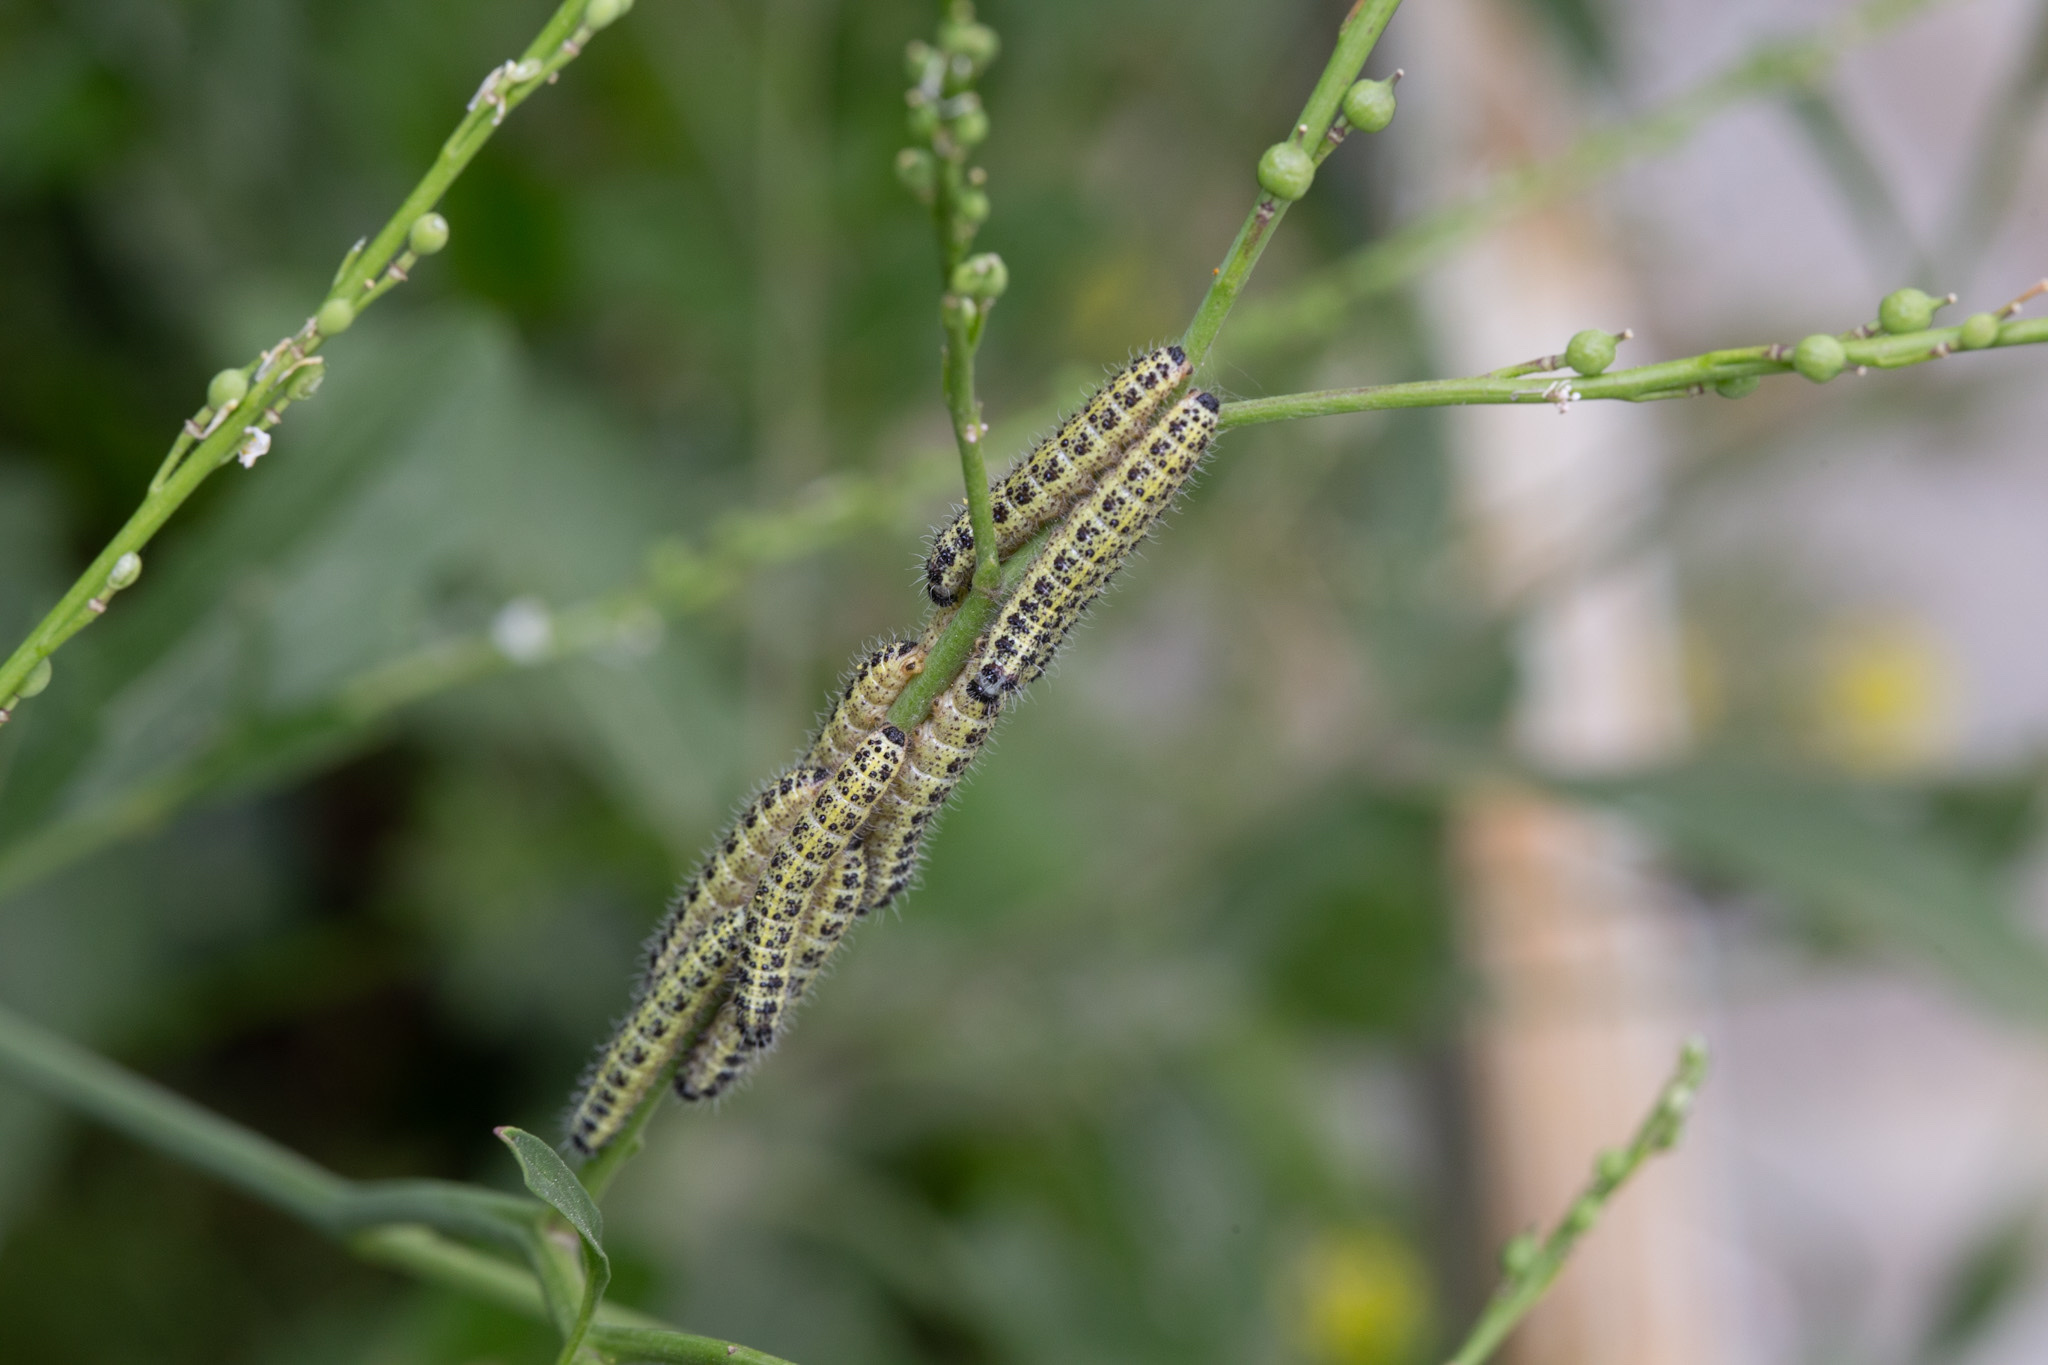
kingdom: Animalia
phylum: Arthropoda
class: Insecta
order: Lepidoptera
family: Pieridae
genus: Pieris
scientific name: Pieris brassicae
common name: Large white
